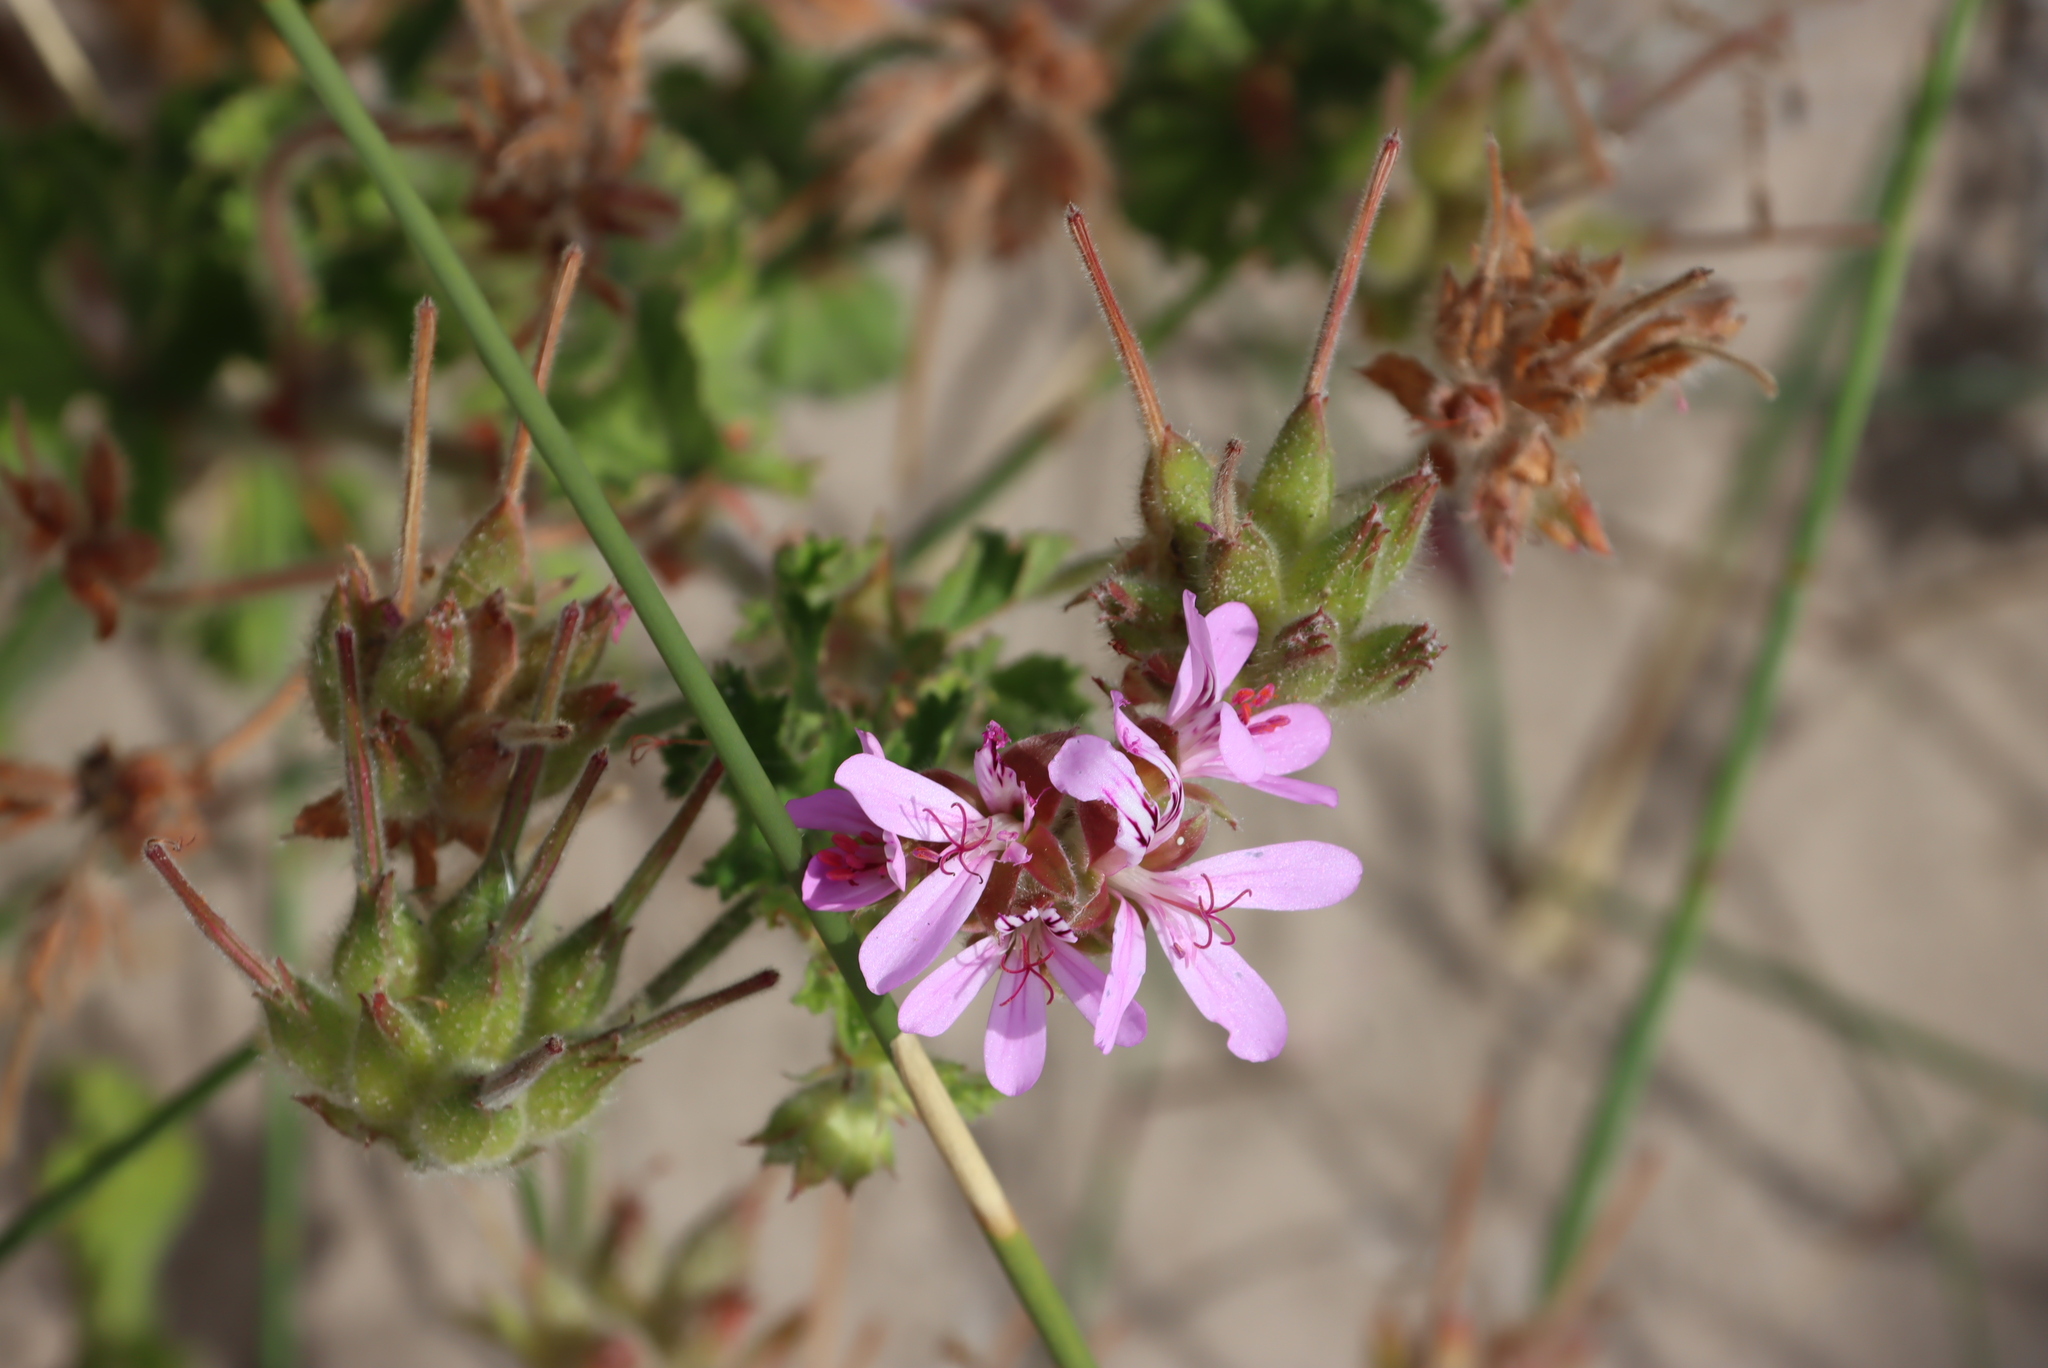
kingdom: Plantae
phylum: Tracheophyta
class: Magnoliopsida
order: Geraniales
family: Geraniaceae
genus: Pelargonium
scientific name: Pelargonium capitatum
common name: Rose scented geranium
